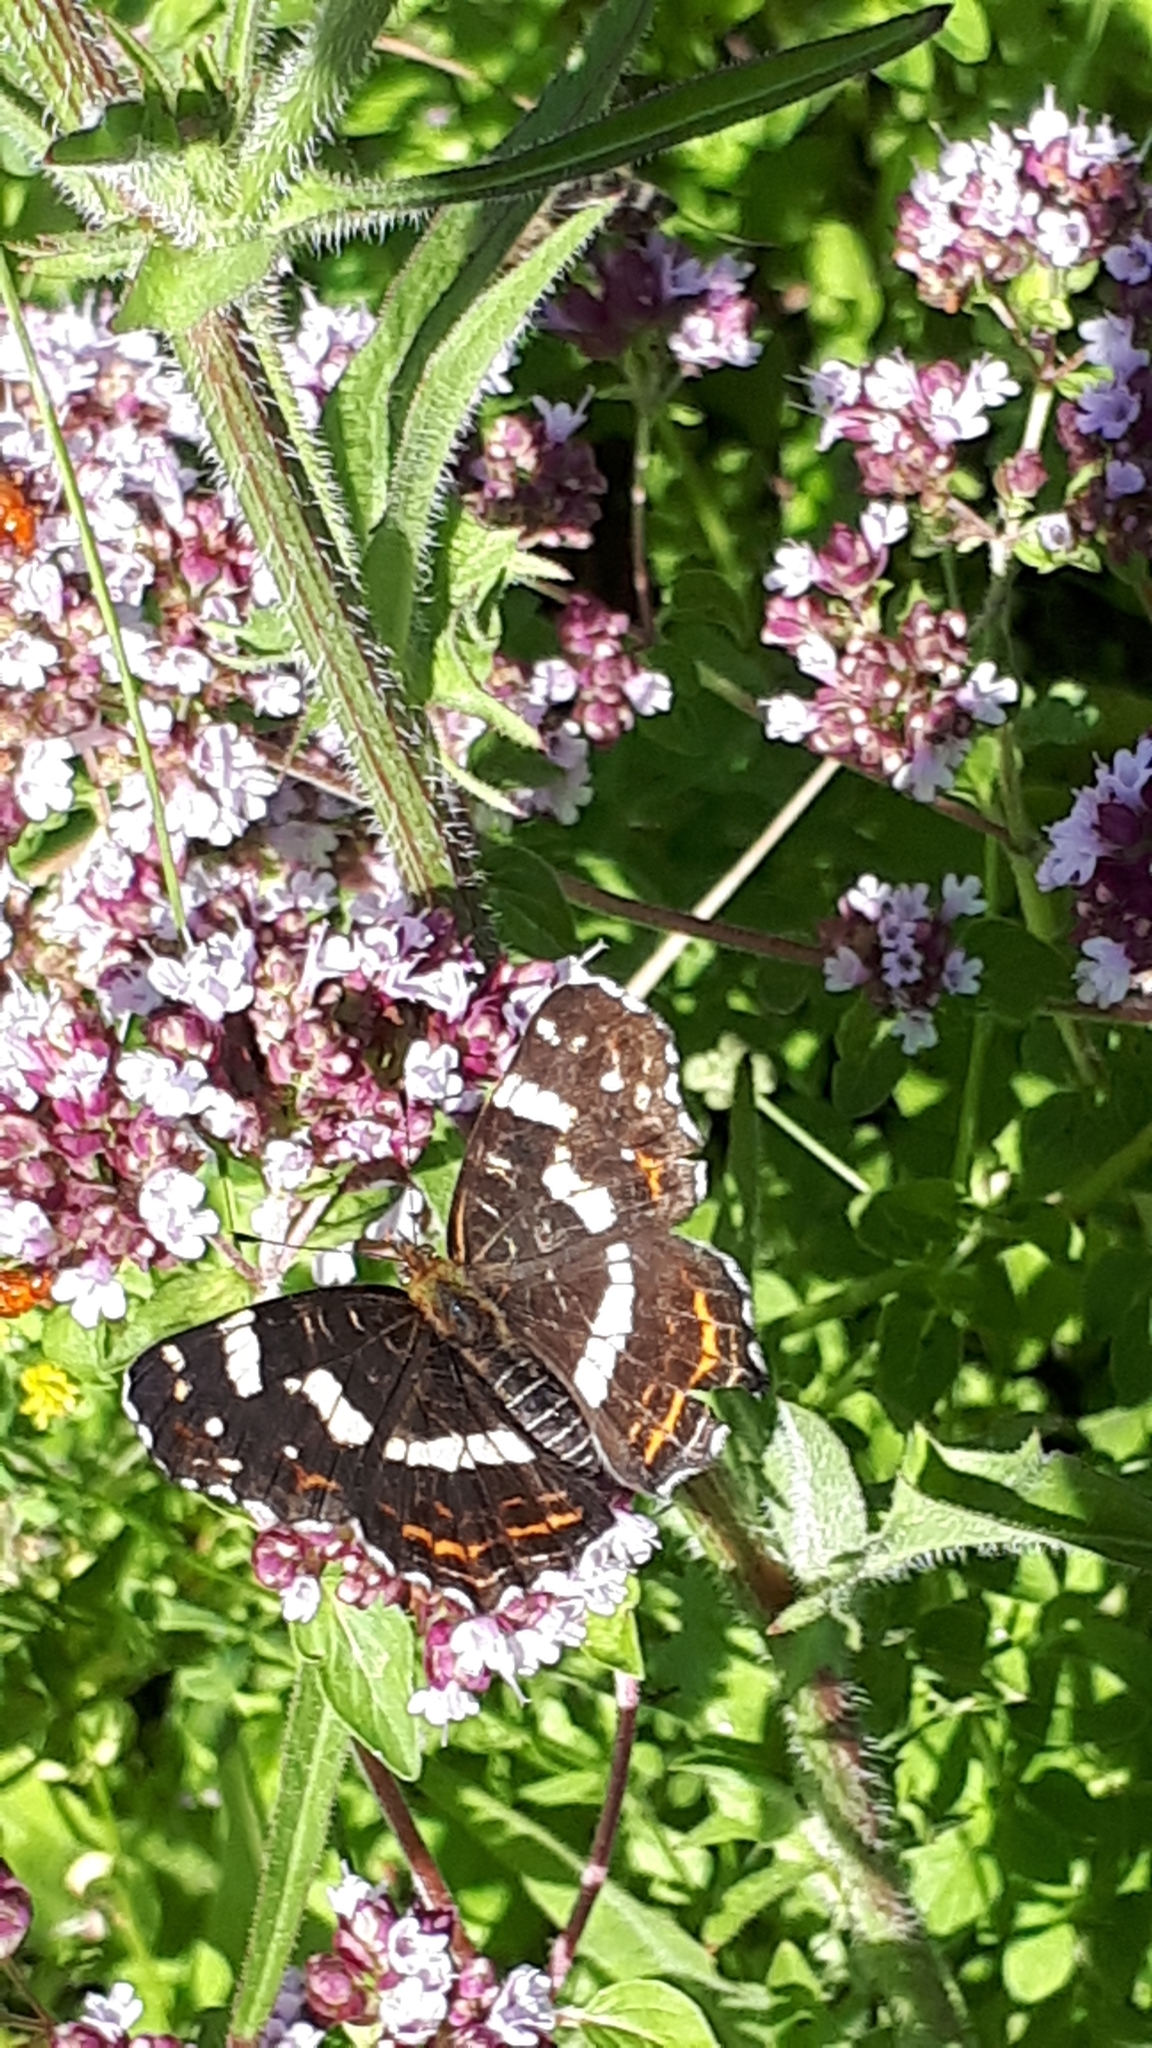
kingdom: Animalia
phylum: Arthropoda
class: Insecta
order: Lepidoptera
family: Nymphalidae
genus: Araschnia
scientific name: Araschnia levana
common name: Map butterfly
